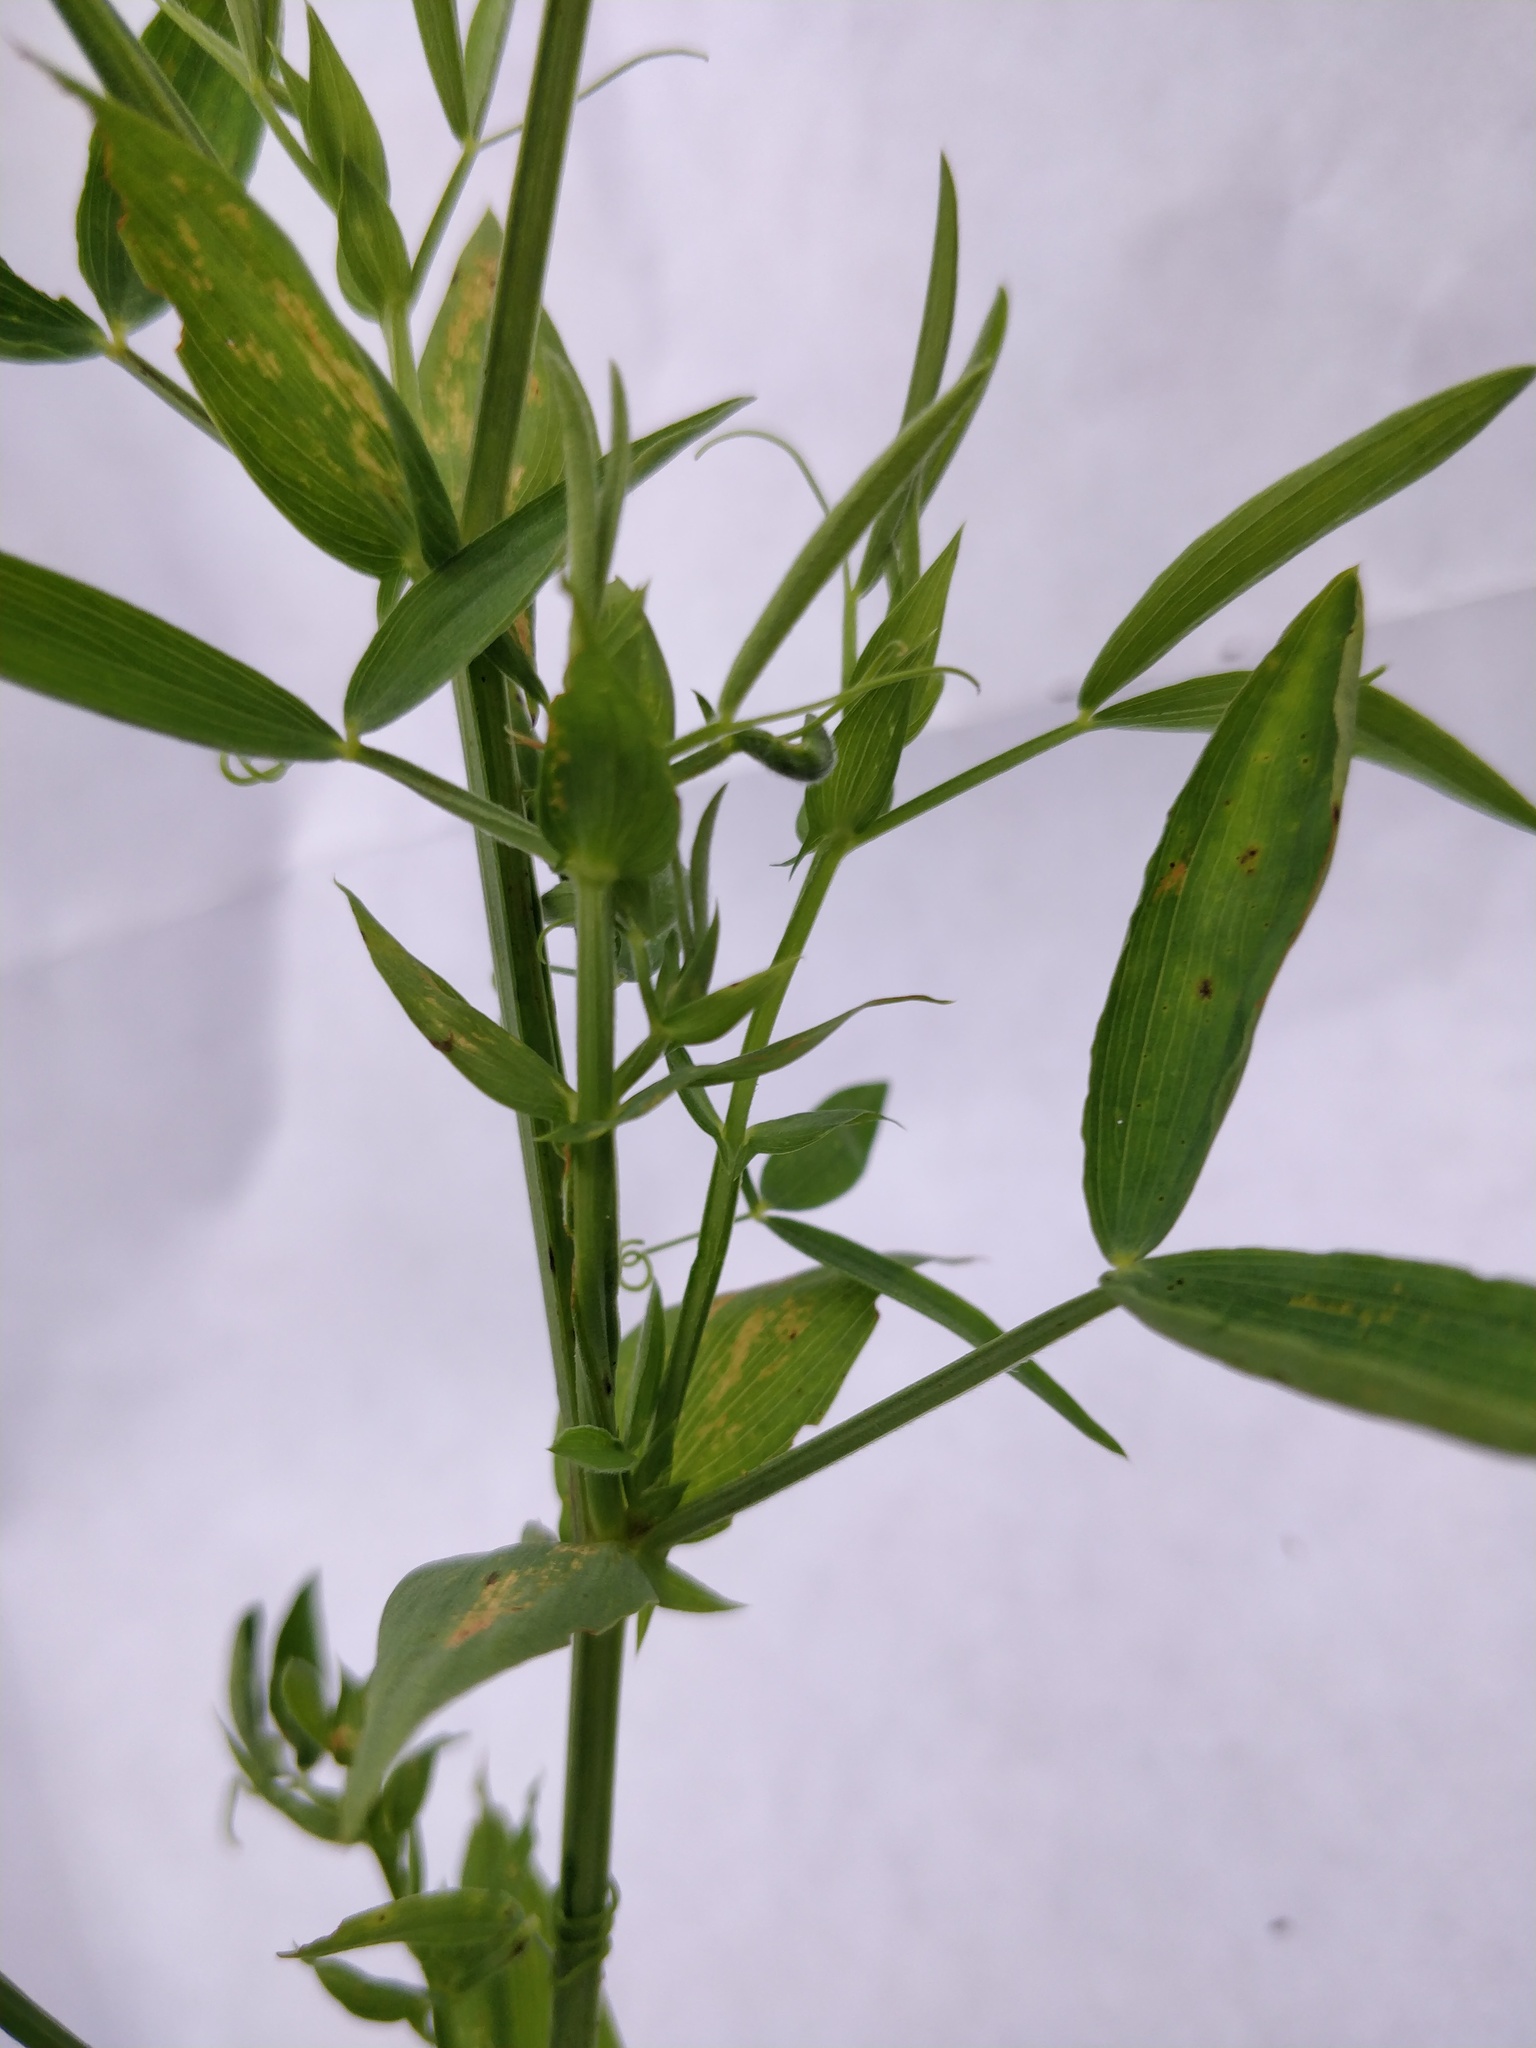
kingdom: Plantae
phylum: Tracheophyta
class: Magnoliopsida
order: Fabales
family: Fabaceae
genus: Lathyrus
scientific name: Lathyrus pratensis
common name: Meadow vetchling
